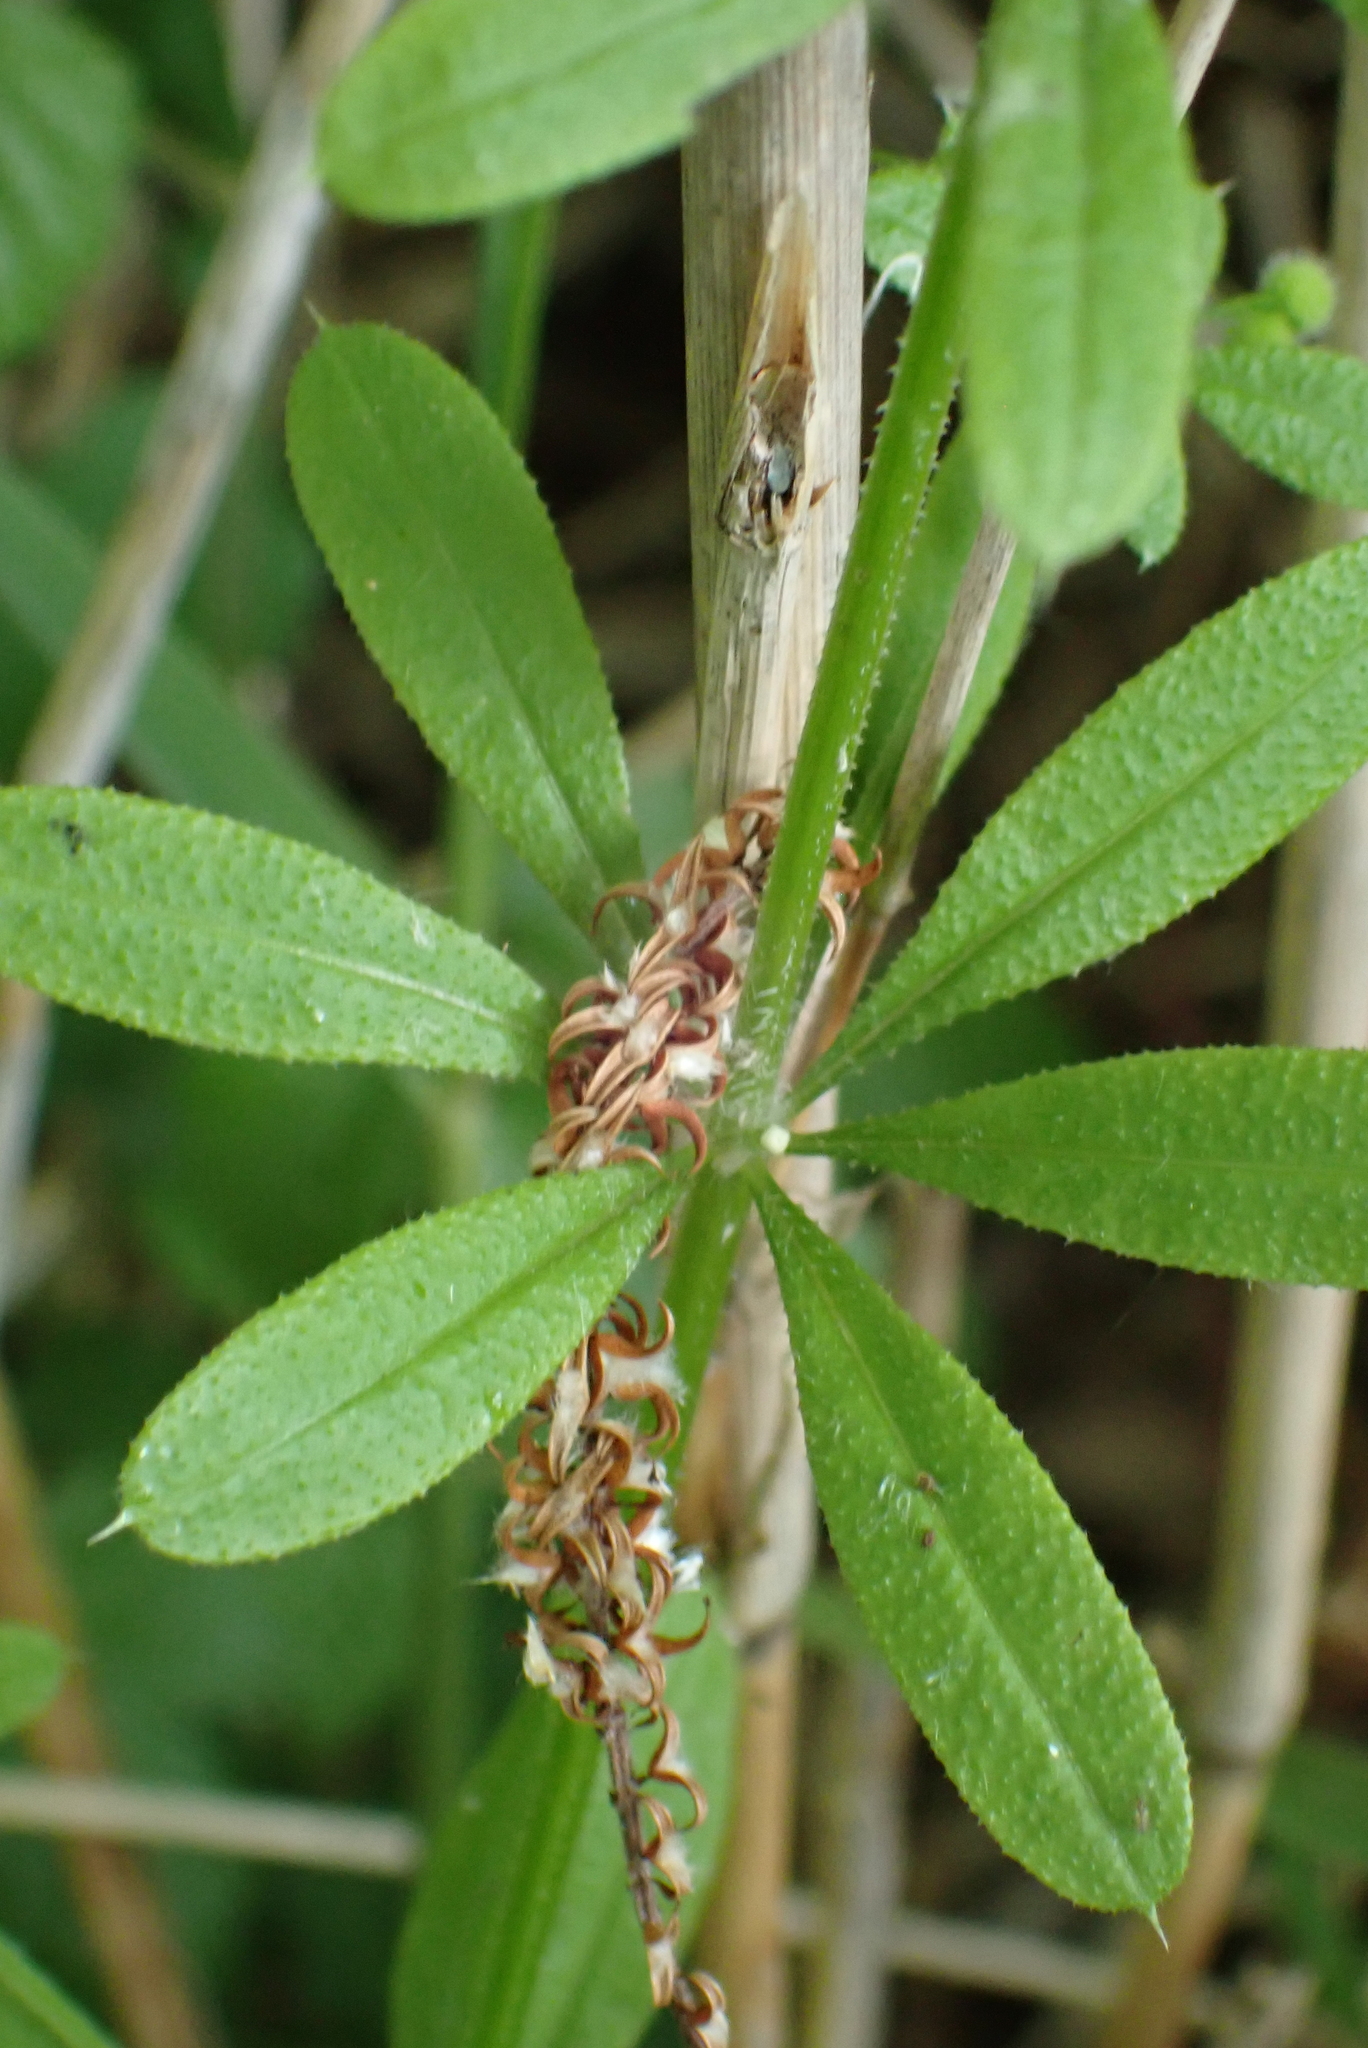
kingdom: Plantae
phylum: Tracheophyta
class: Magnoliopsida
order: Gentianales
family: Rubiaceae
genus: Galium
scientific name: Galium aparine
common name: Cleavers
